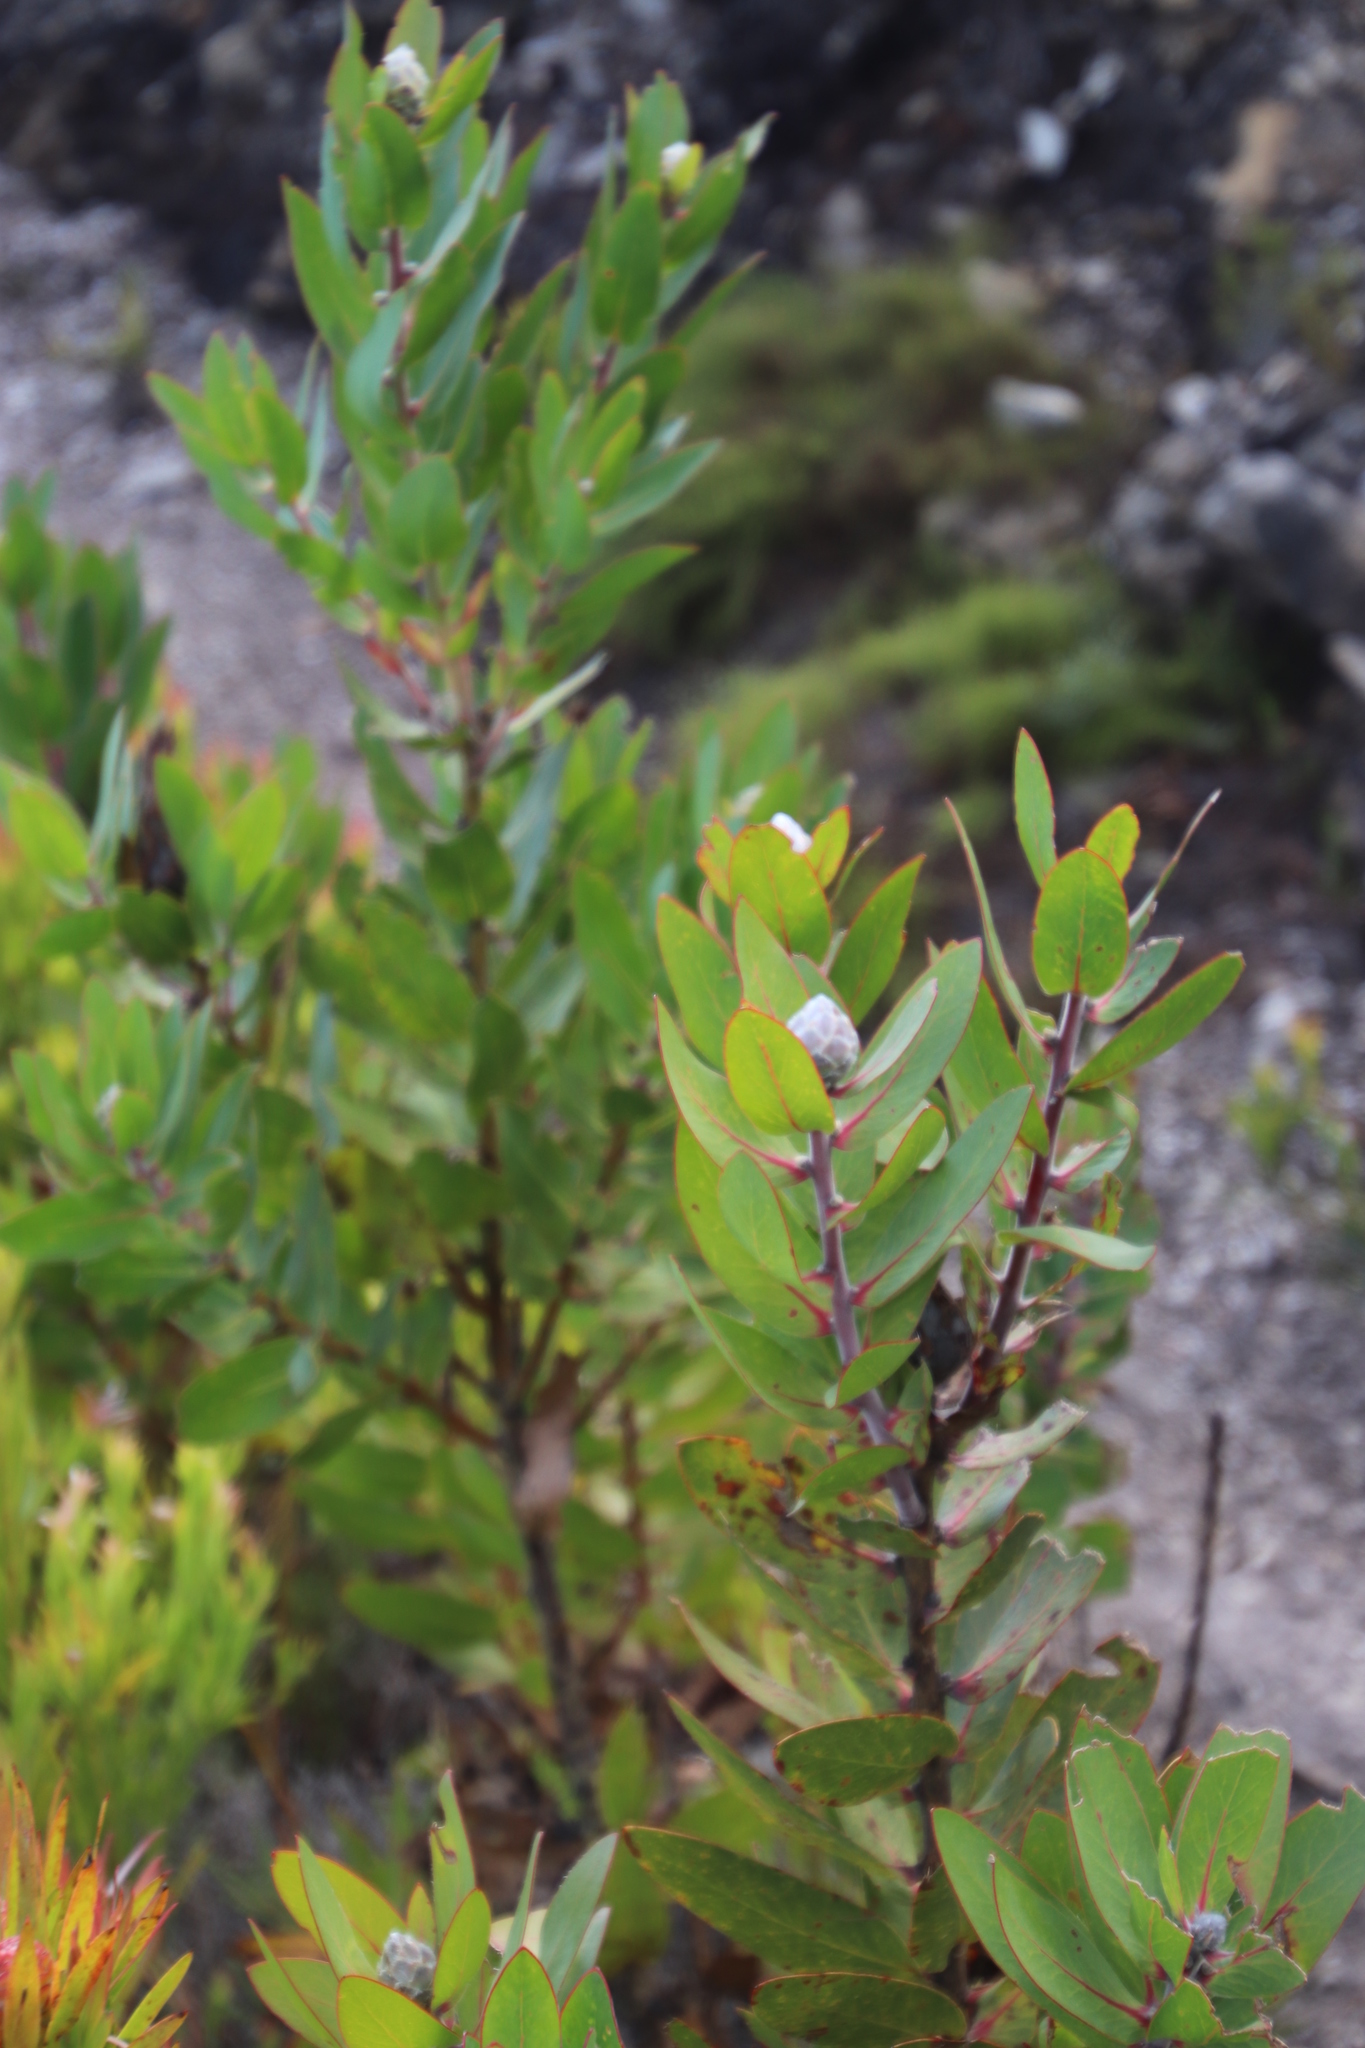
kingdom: Plantae
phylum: Tracheophyta
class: Magnoliopsida
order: Proteales
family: Proteaceae
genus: Protea
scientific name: Protea mundii
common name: Forest sugarbush
